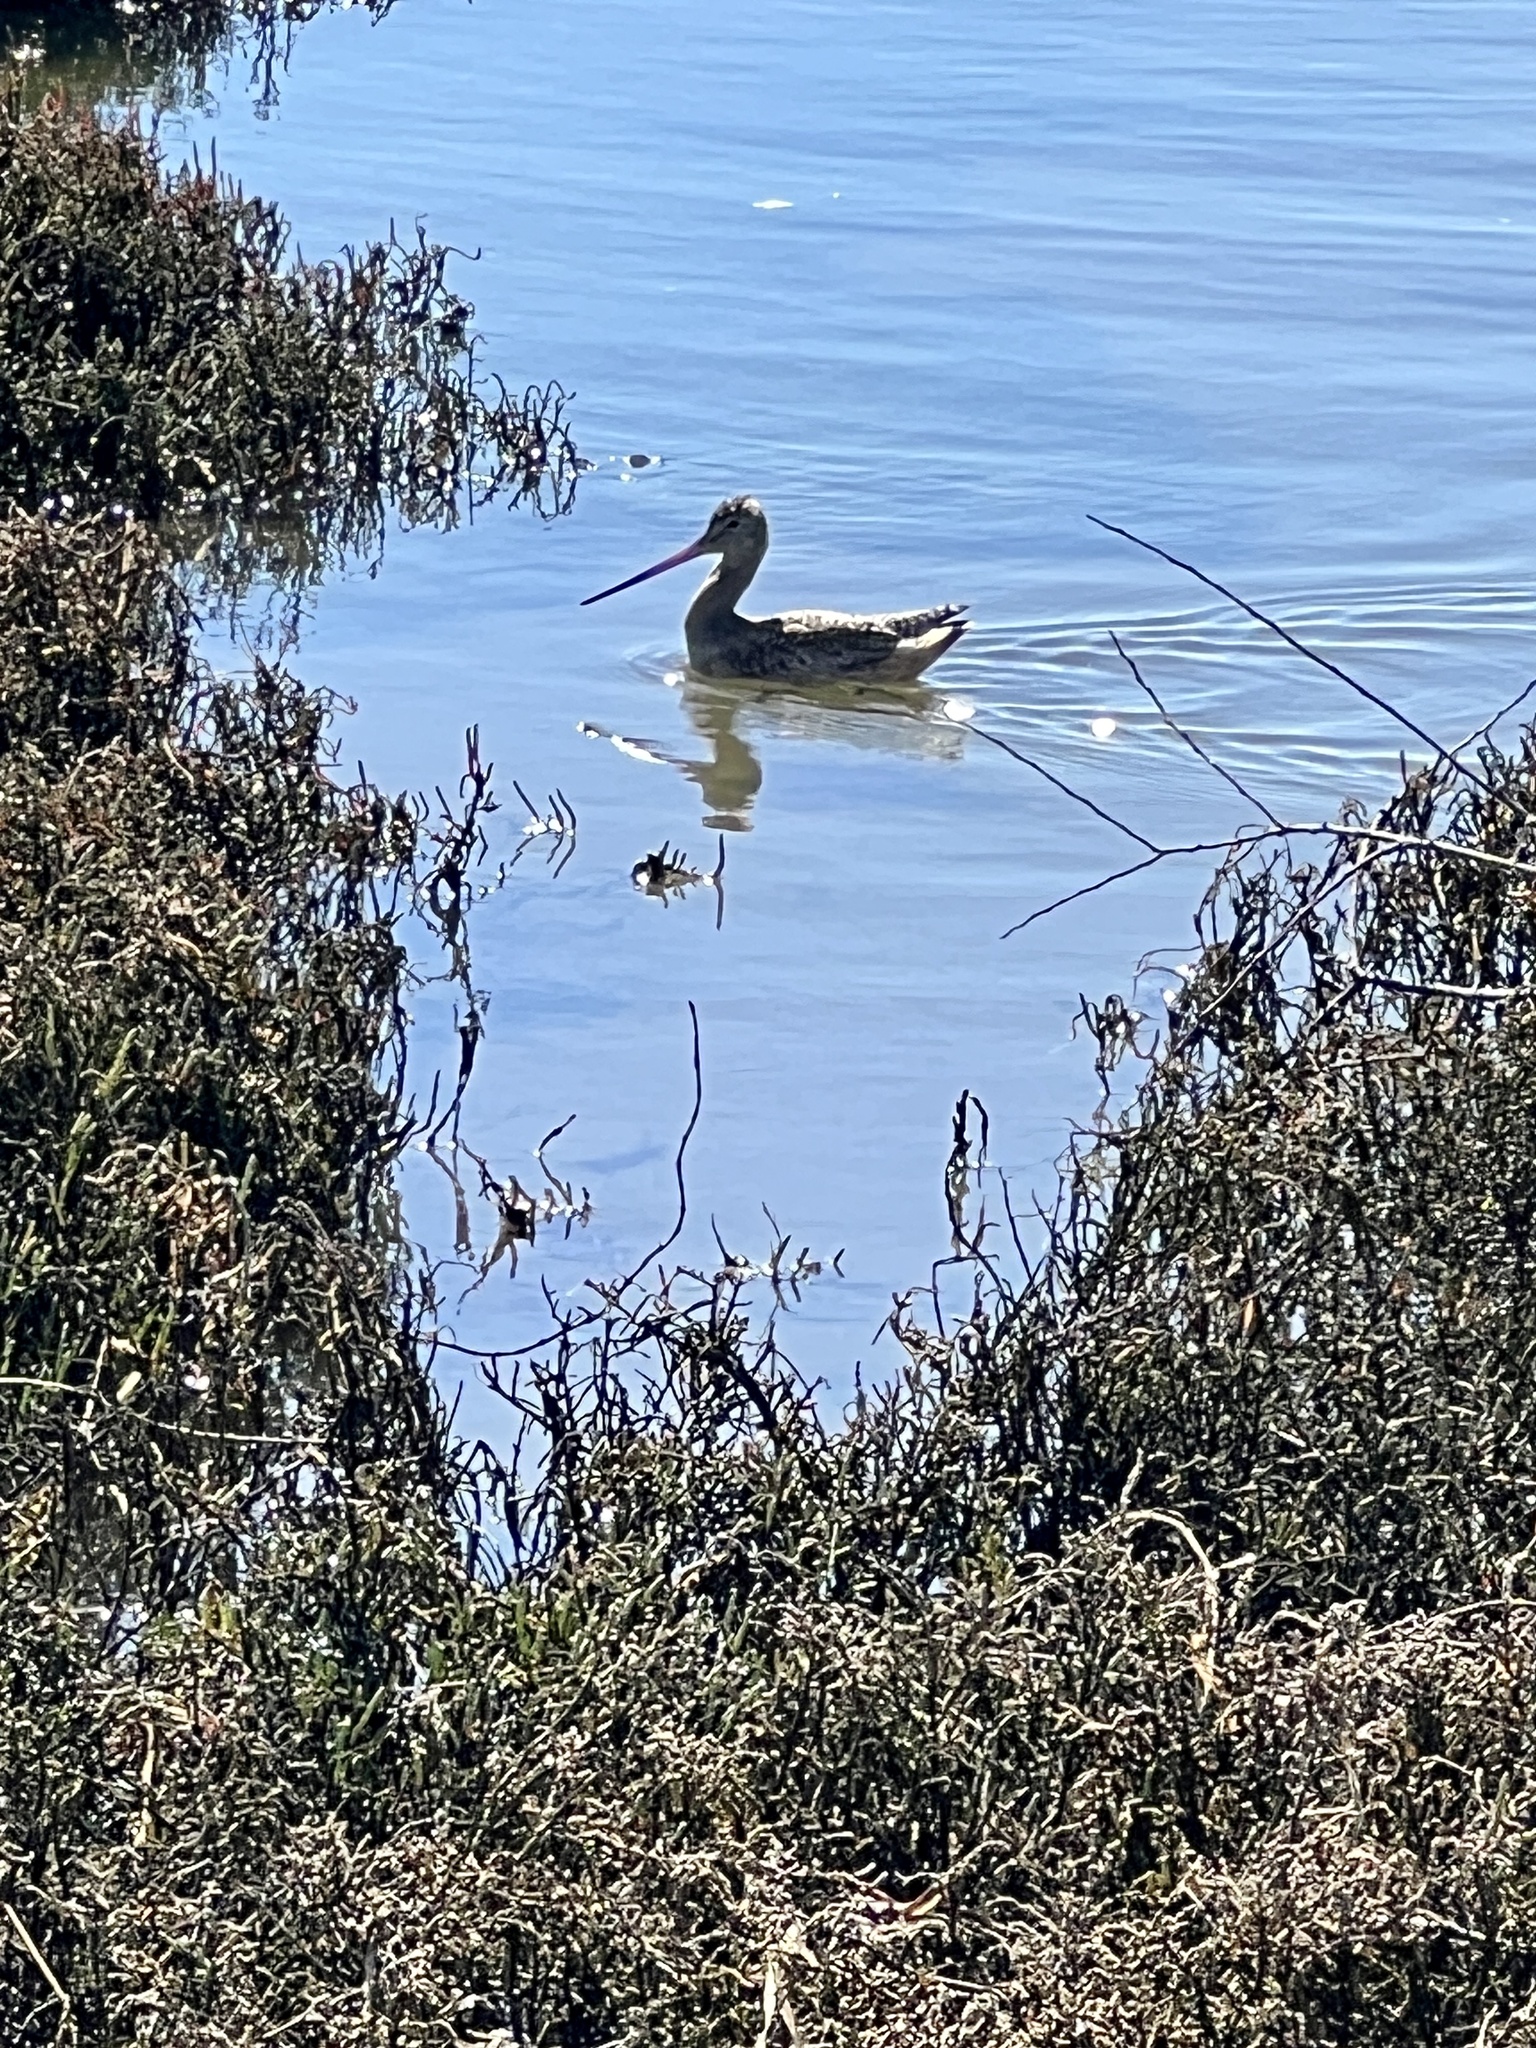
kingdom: Animalia
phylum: Chordata
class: Aves
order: Charadriiformes
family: Scolopacidae
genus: Limosa
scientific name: Limosa fedoa
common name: Marbled godwit
